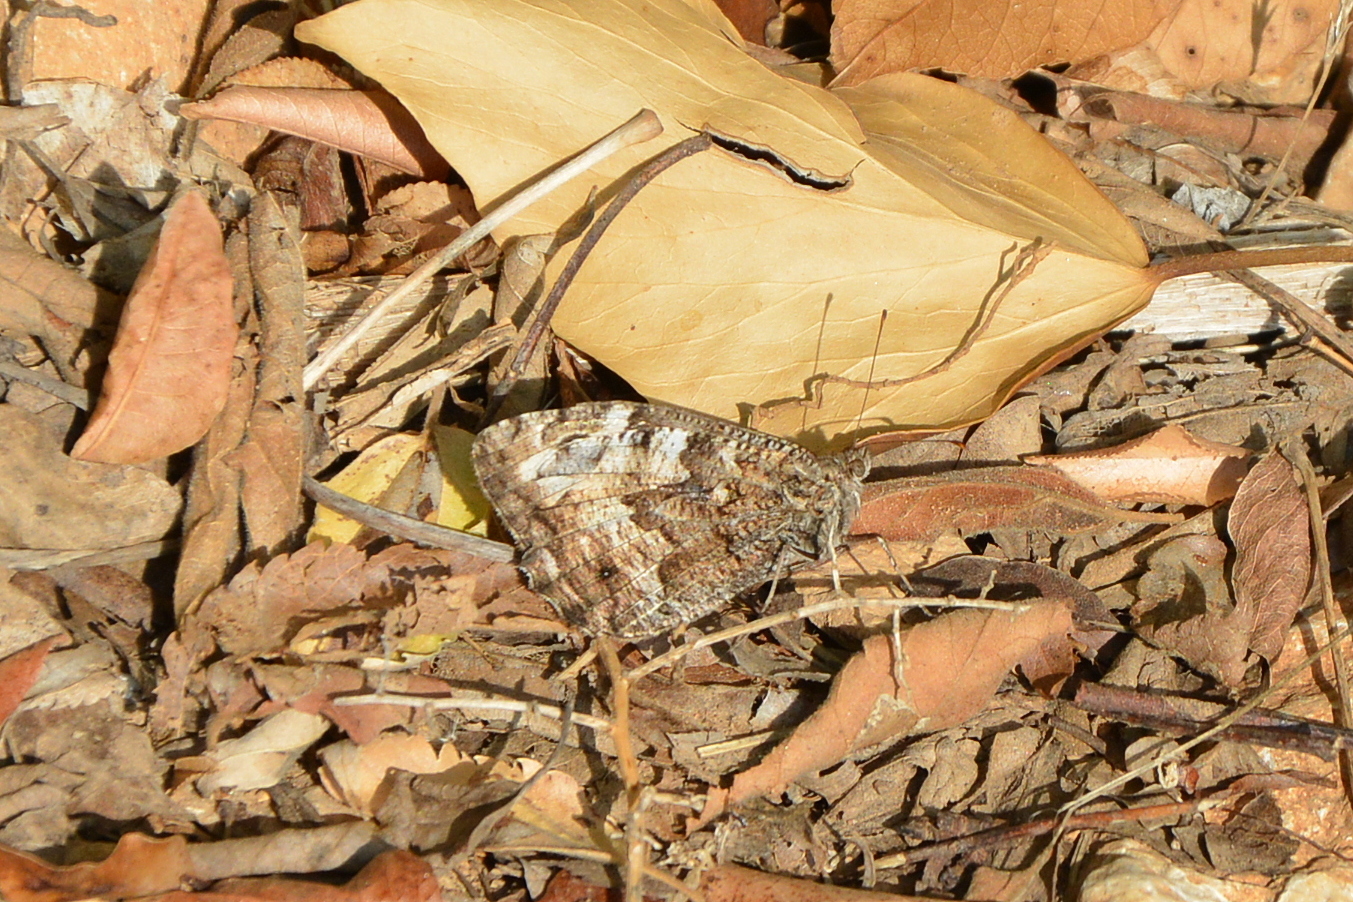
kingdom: Animalia
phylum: Arthropoda
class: Insecta
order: Lepidoptera
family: Nymphalidae
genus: Hipparchia
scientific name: Hipparchia semele
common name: Grayling
